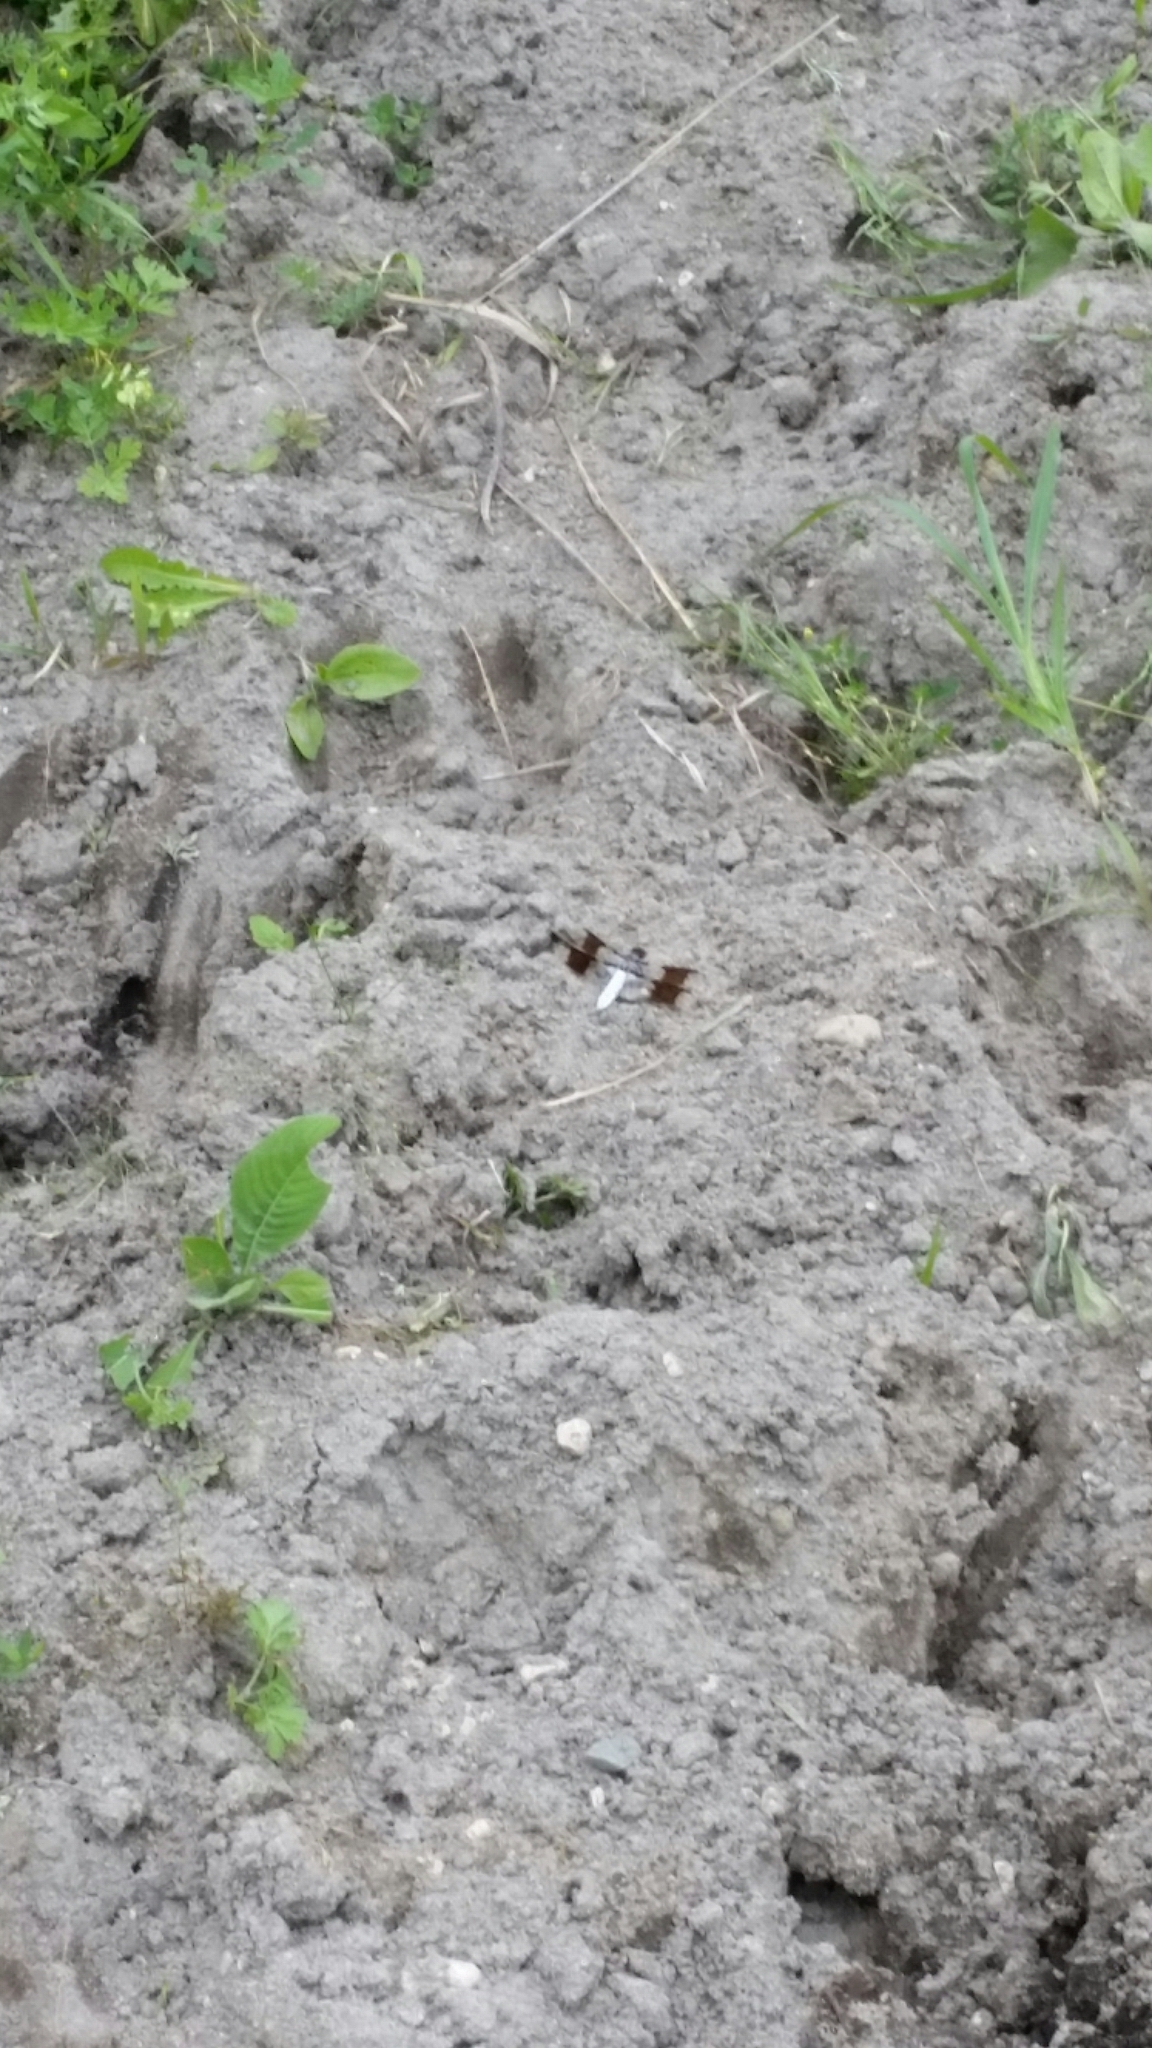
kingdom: Animalia
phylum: Arthropoda
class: Insecta
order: Odonata
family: Libellulidae
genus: Plathemis
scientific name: Plathemis lydia
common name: Common whitetail
